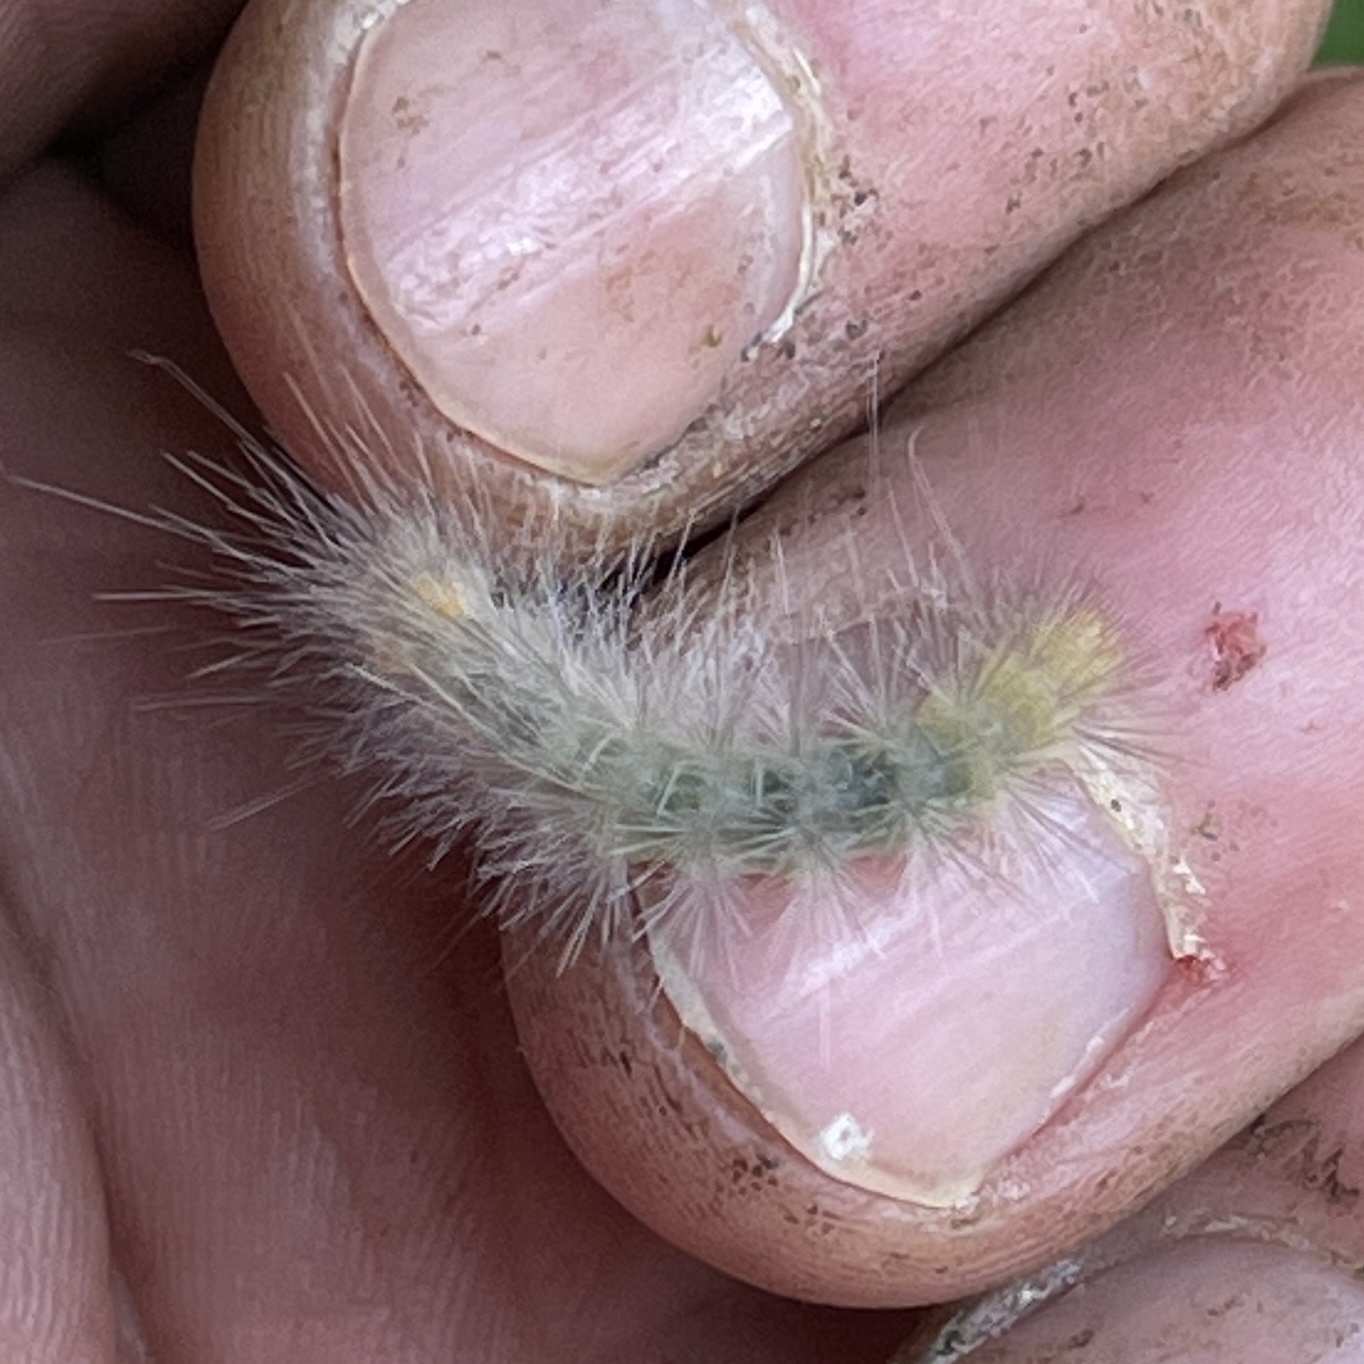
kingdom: Animalia
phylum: Arthropoda
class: Insecta
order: Lepidoptera
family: Erebidae
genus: Spilosoma
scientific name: Spilosoma virginica
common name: Virginia tiger moth
